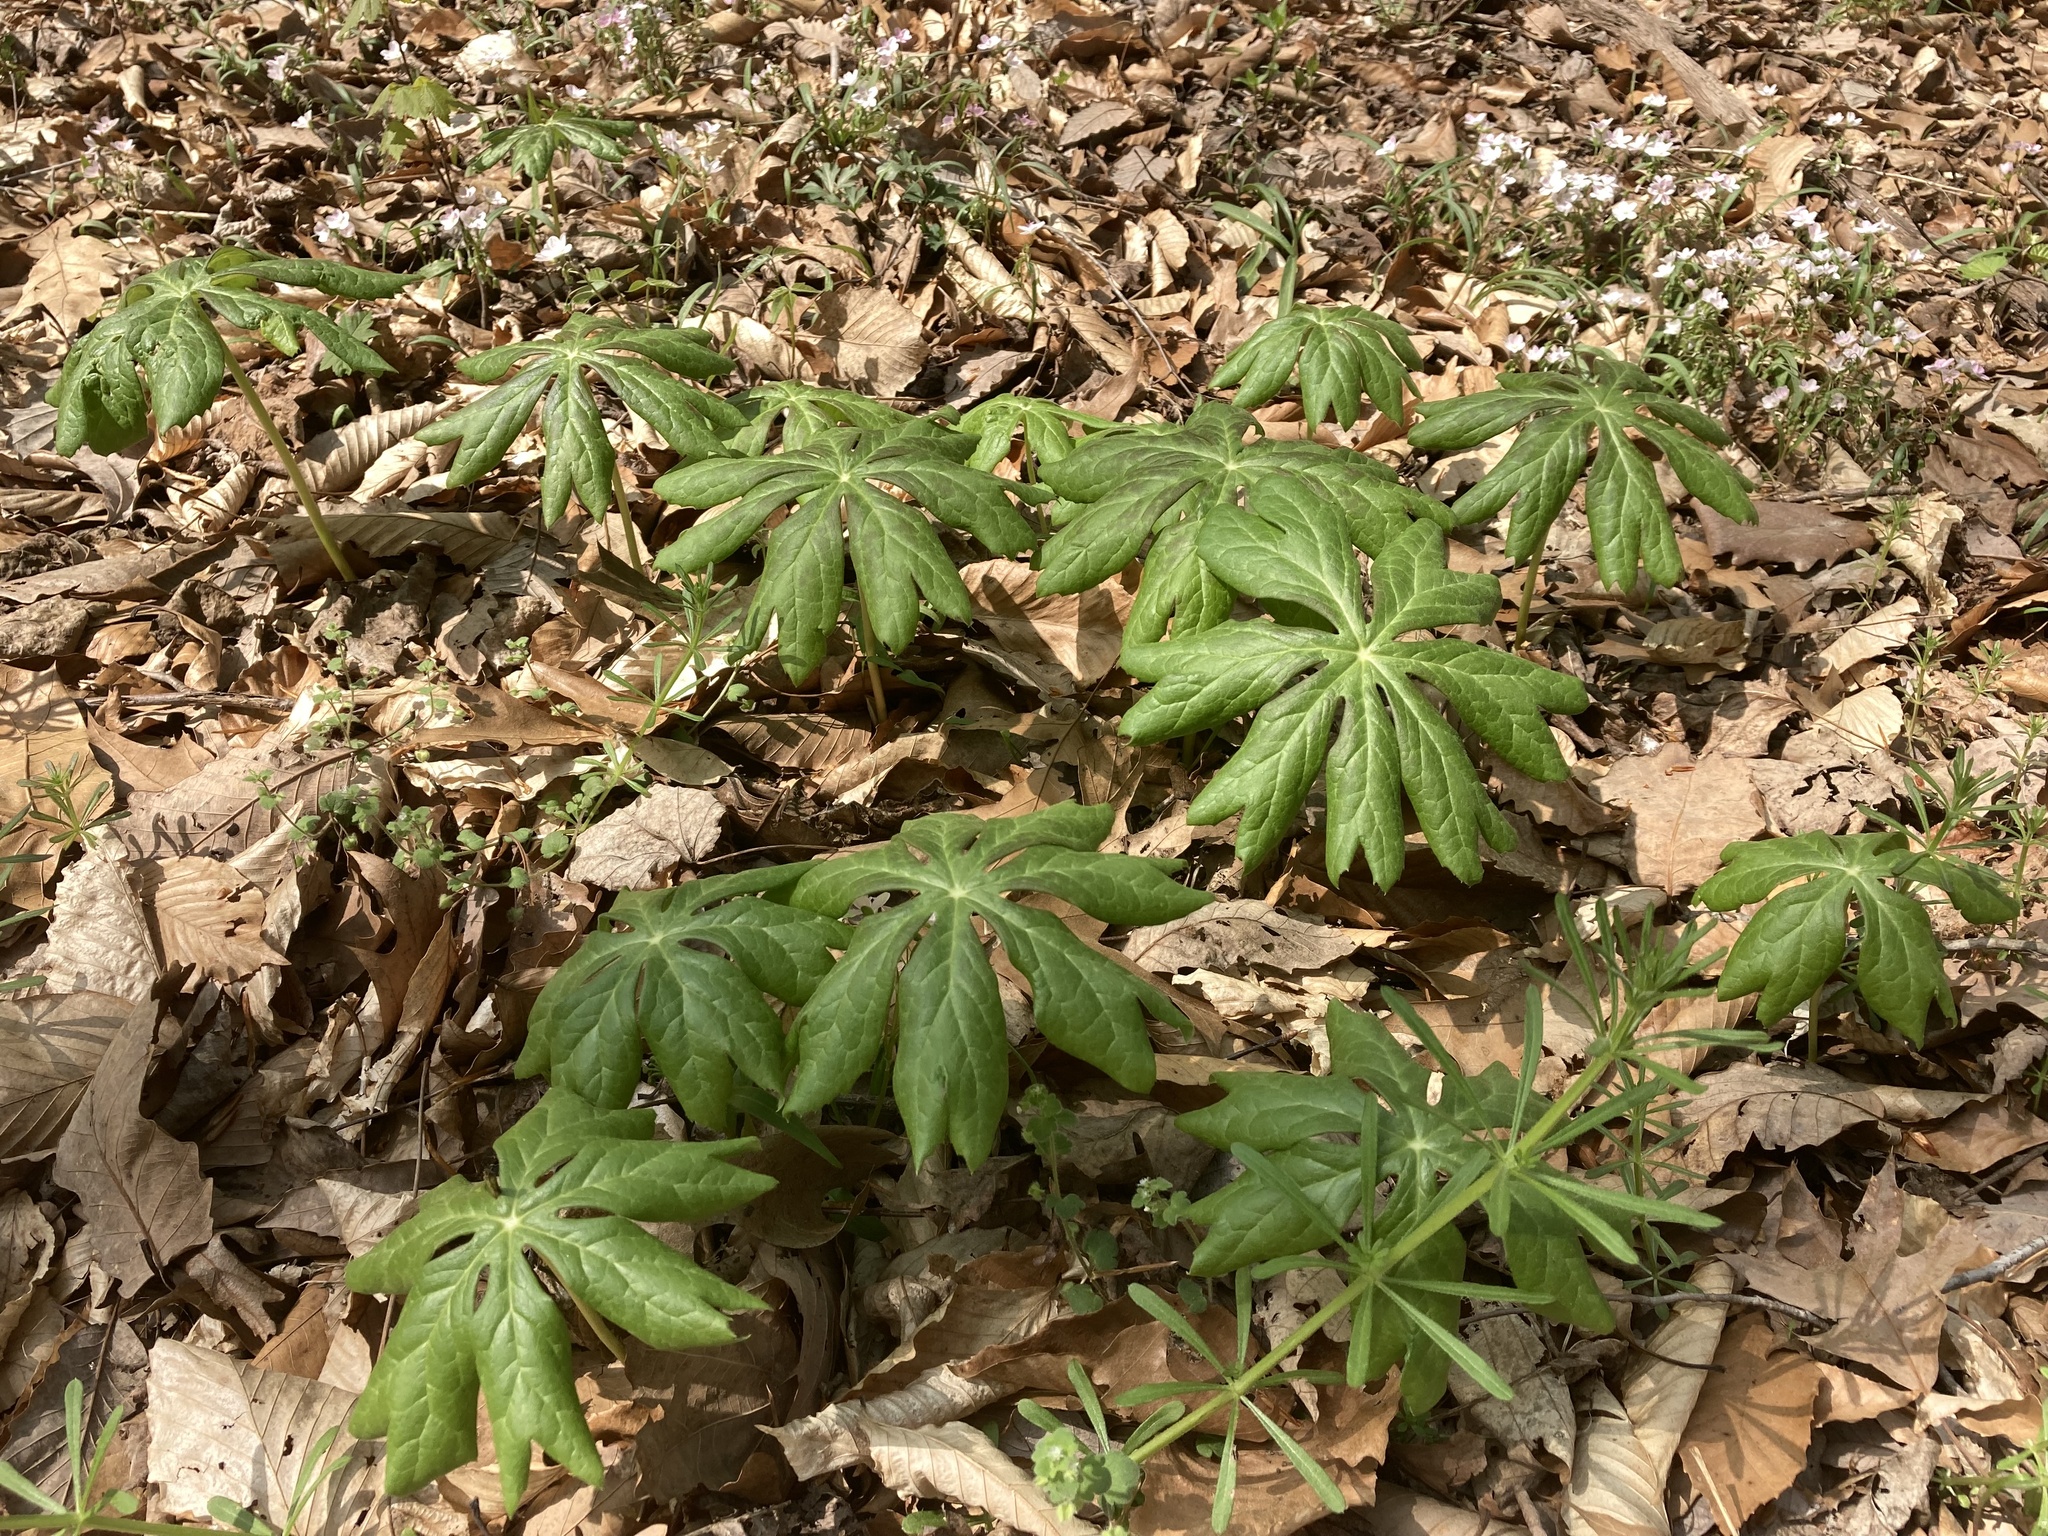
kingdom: Plantae
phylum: Tracheophyta
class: Magnoliopsida
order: Ranunculales
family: Berberidaceae
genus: Podophyllum
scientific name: Podophyllum peltatum
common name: Wild mandrake
